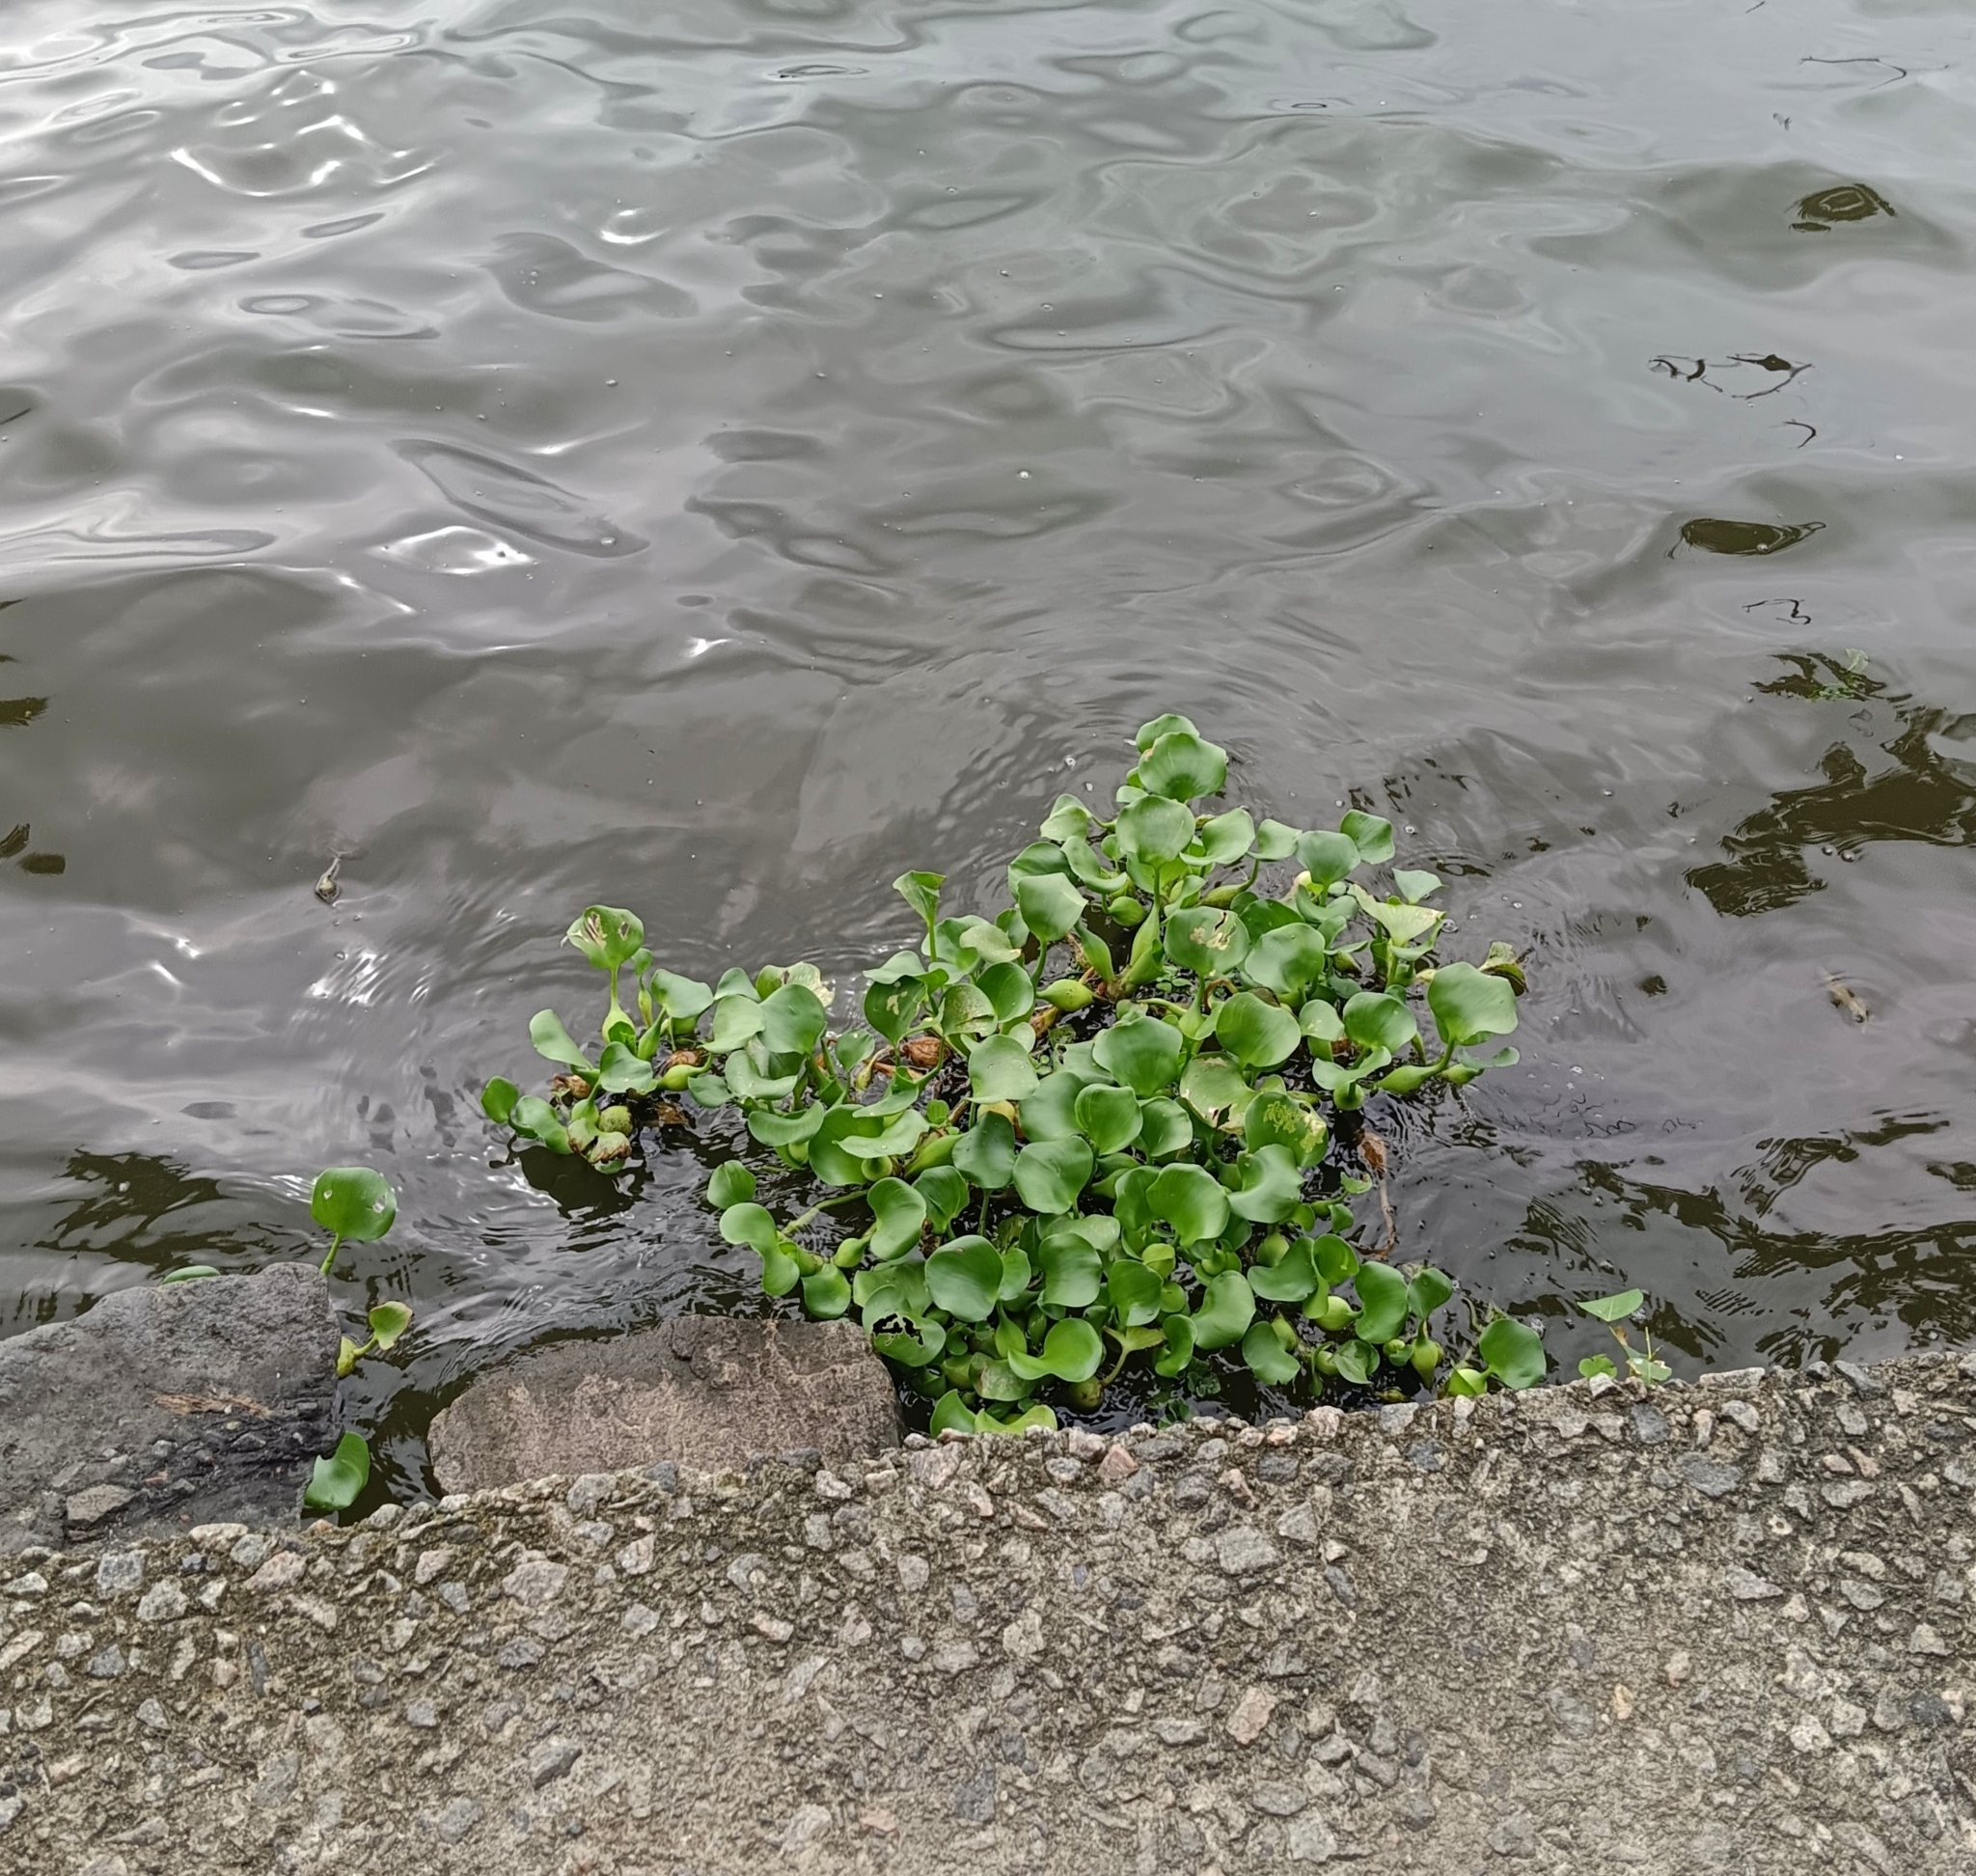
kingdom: Plantae
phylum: Tracheophyta
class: Liliopsida
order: Commelinales
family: Pontederiaceae
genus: Pontederia
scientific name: Pontederia crassipes
